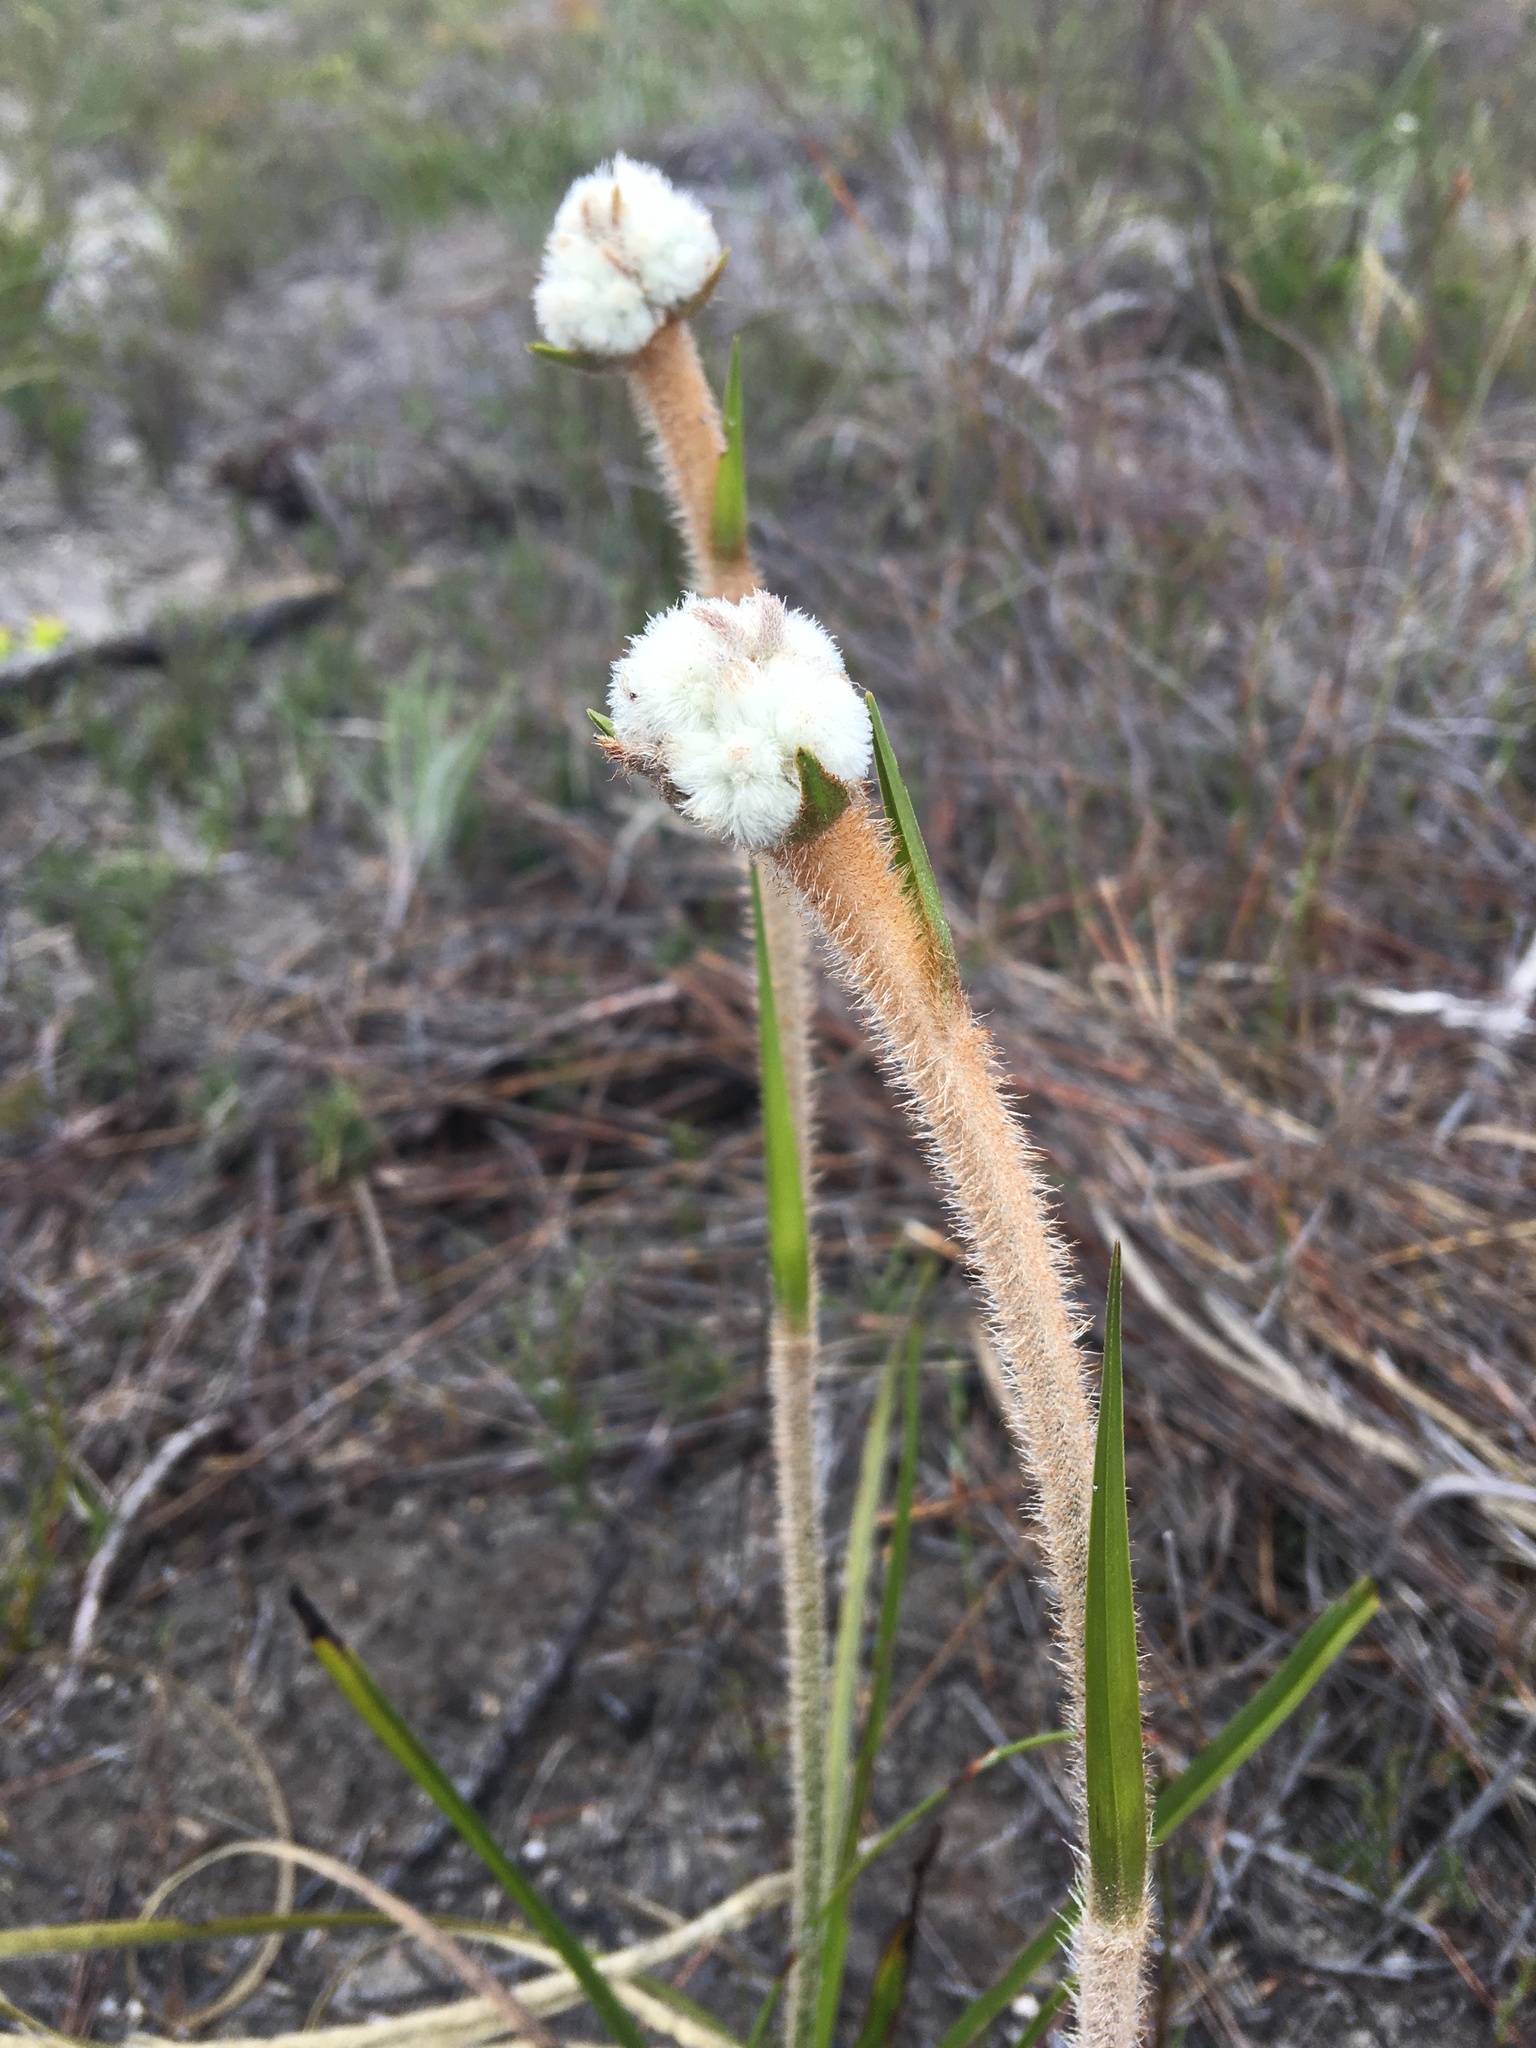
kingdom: Plantae
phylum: Tracheophyta
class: Liliopsida
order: Asparagales
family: Lanariaceae
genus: Lanaria
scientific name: Lanaria lanata
